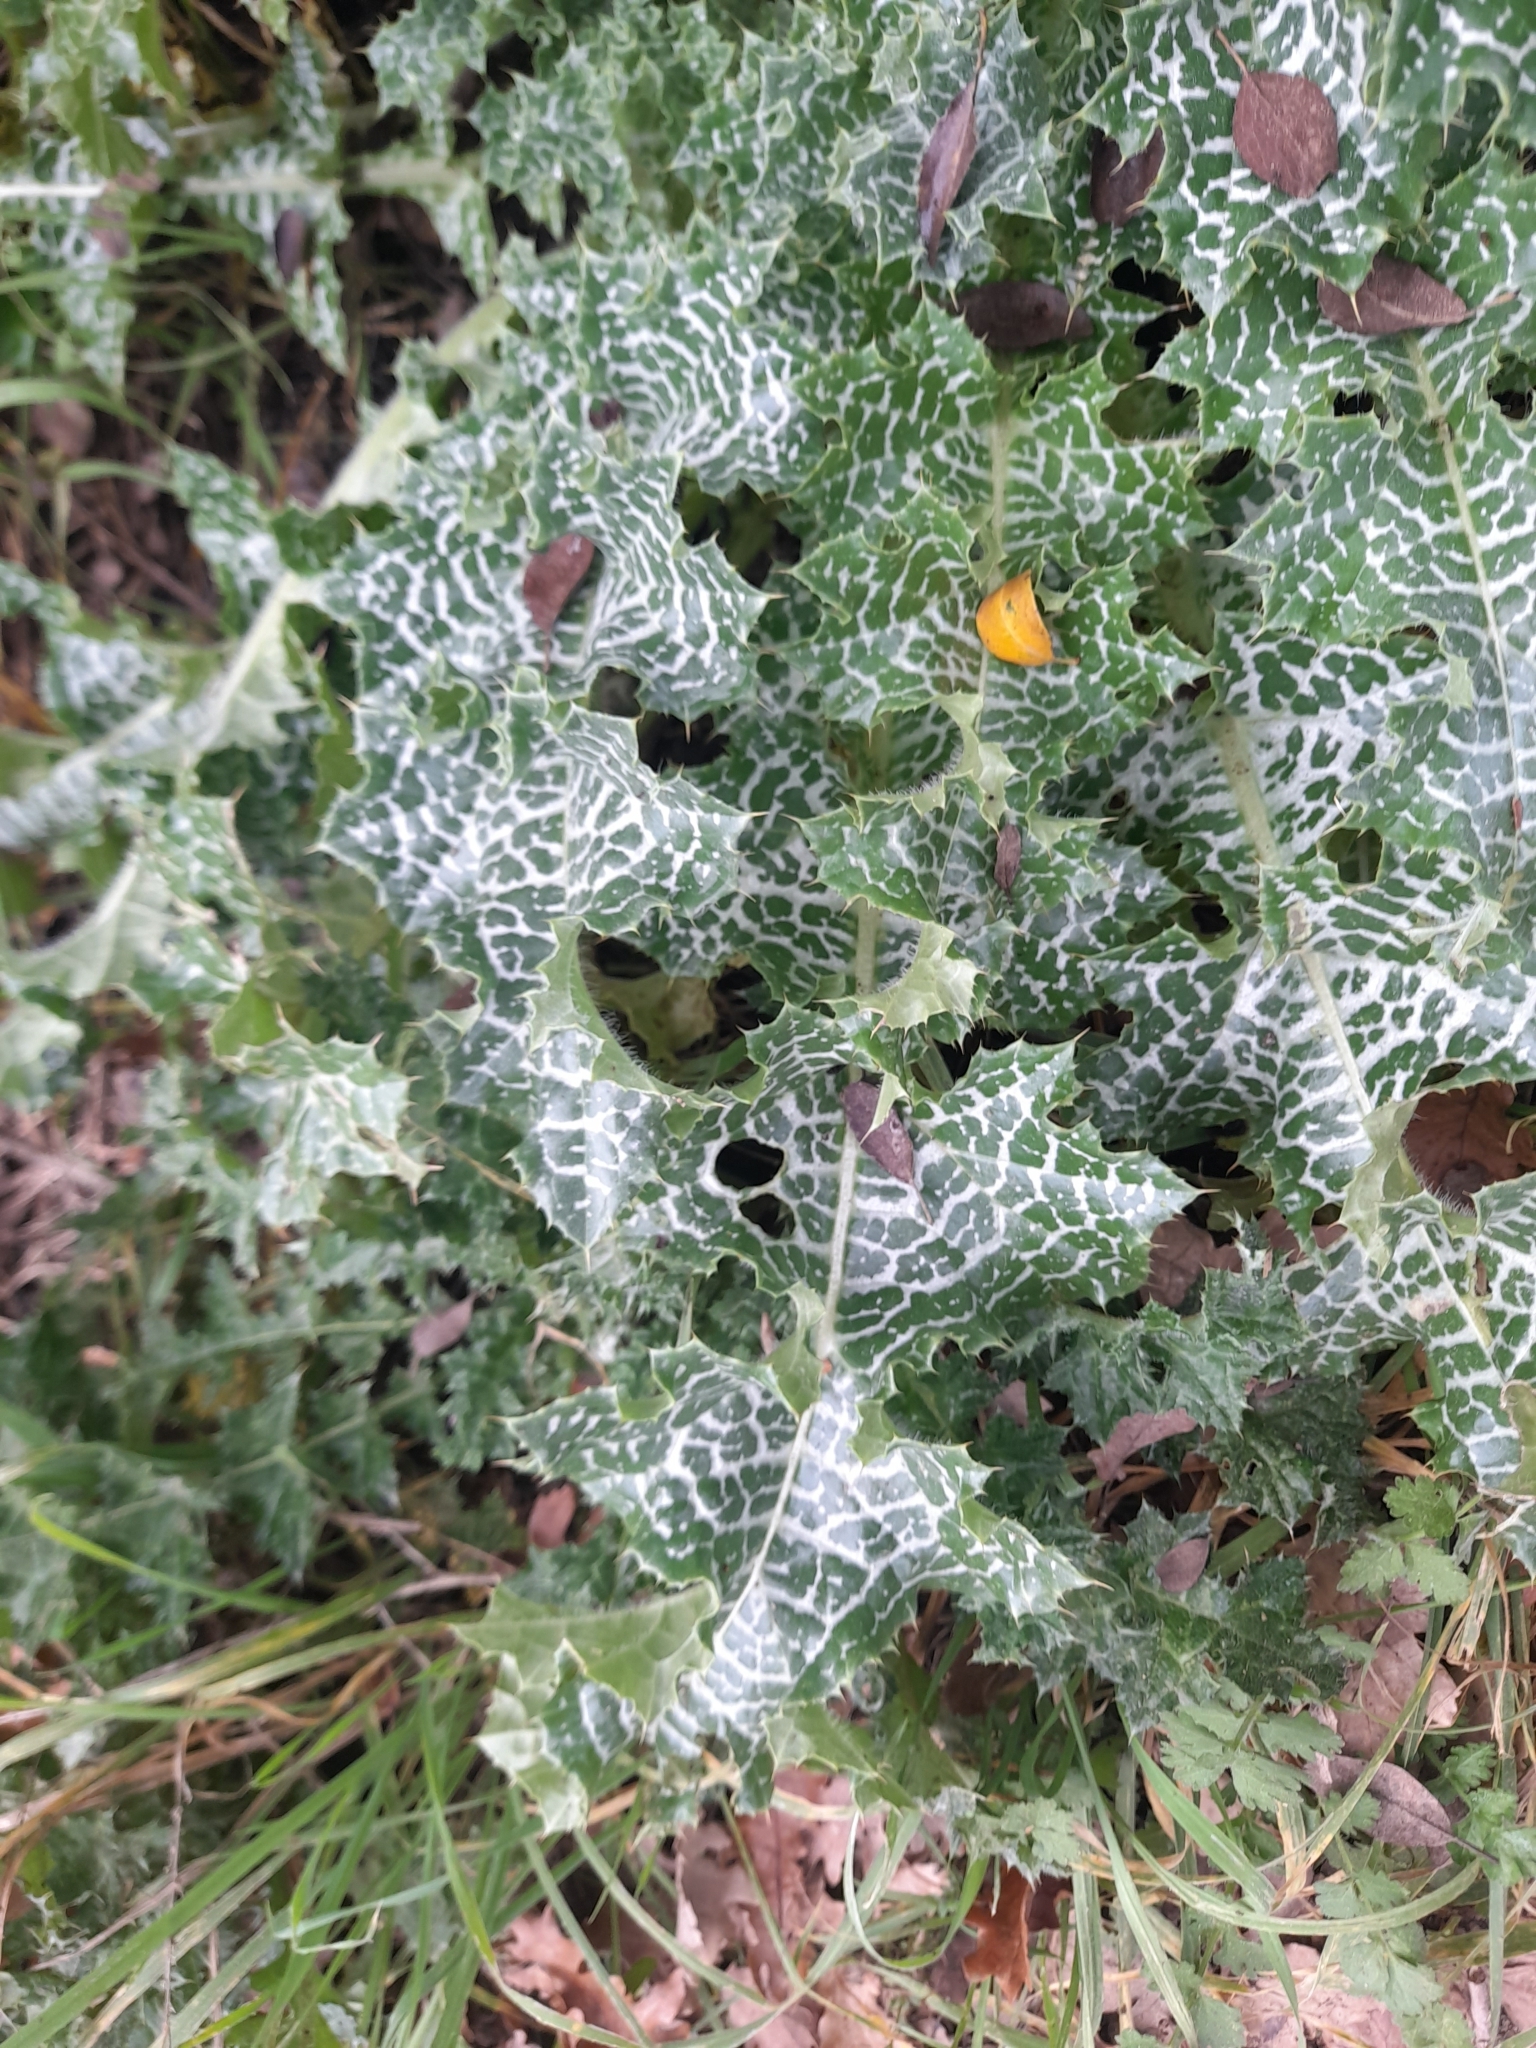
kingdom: Plantae
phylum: Tracheophyta
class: Magnoliopsida
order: Asterales
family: Asteraceae
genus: Silybum
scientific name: Silybum marianum
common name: Milk thistle
